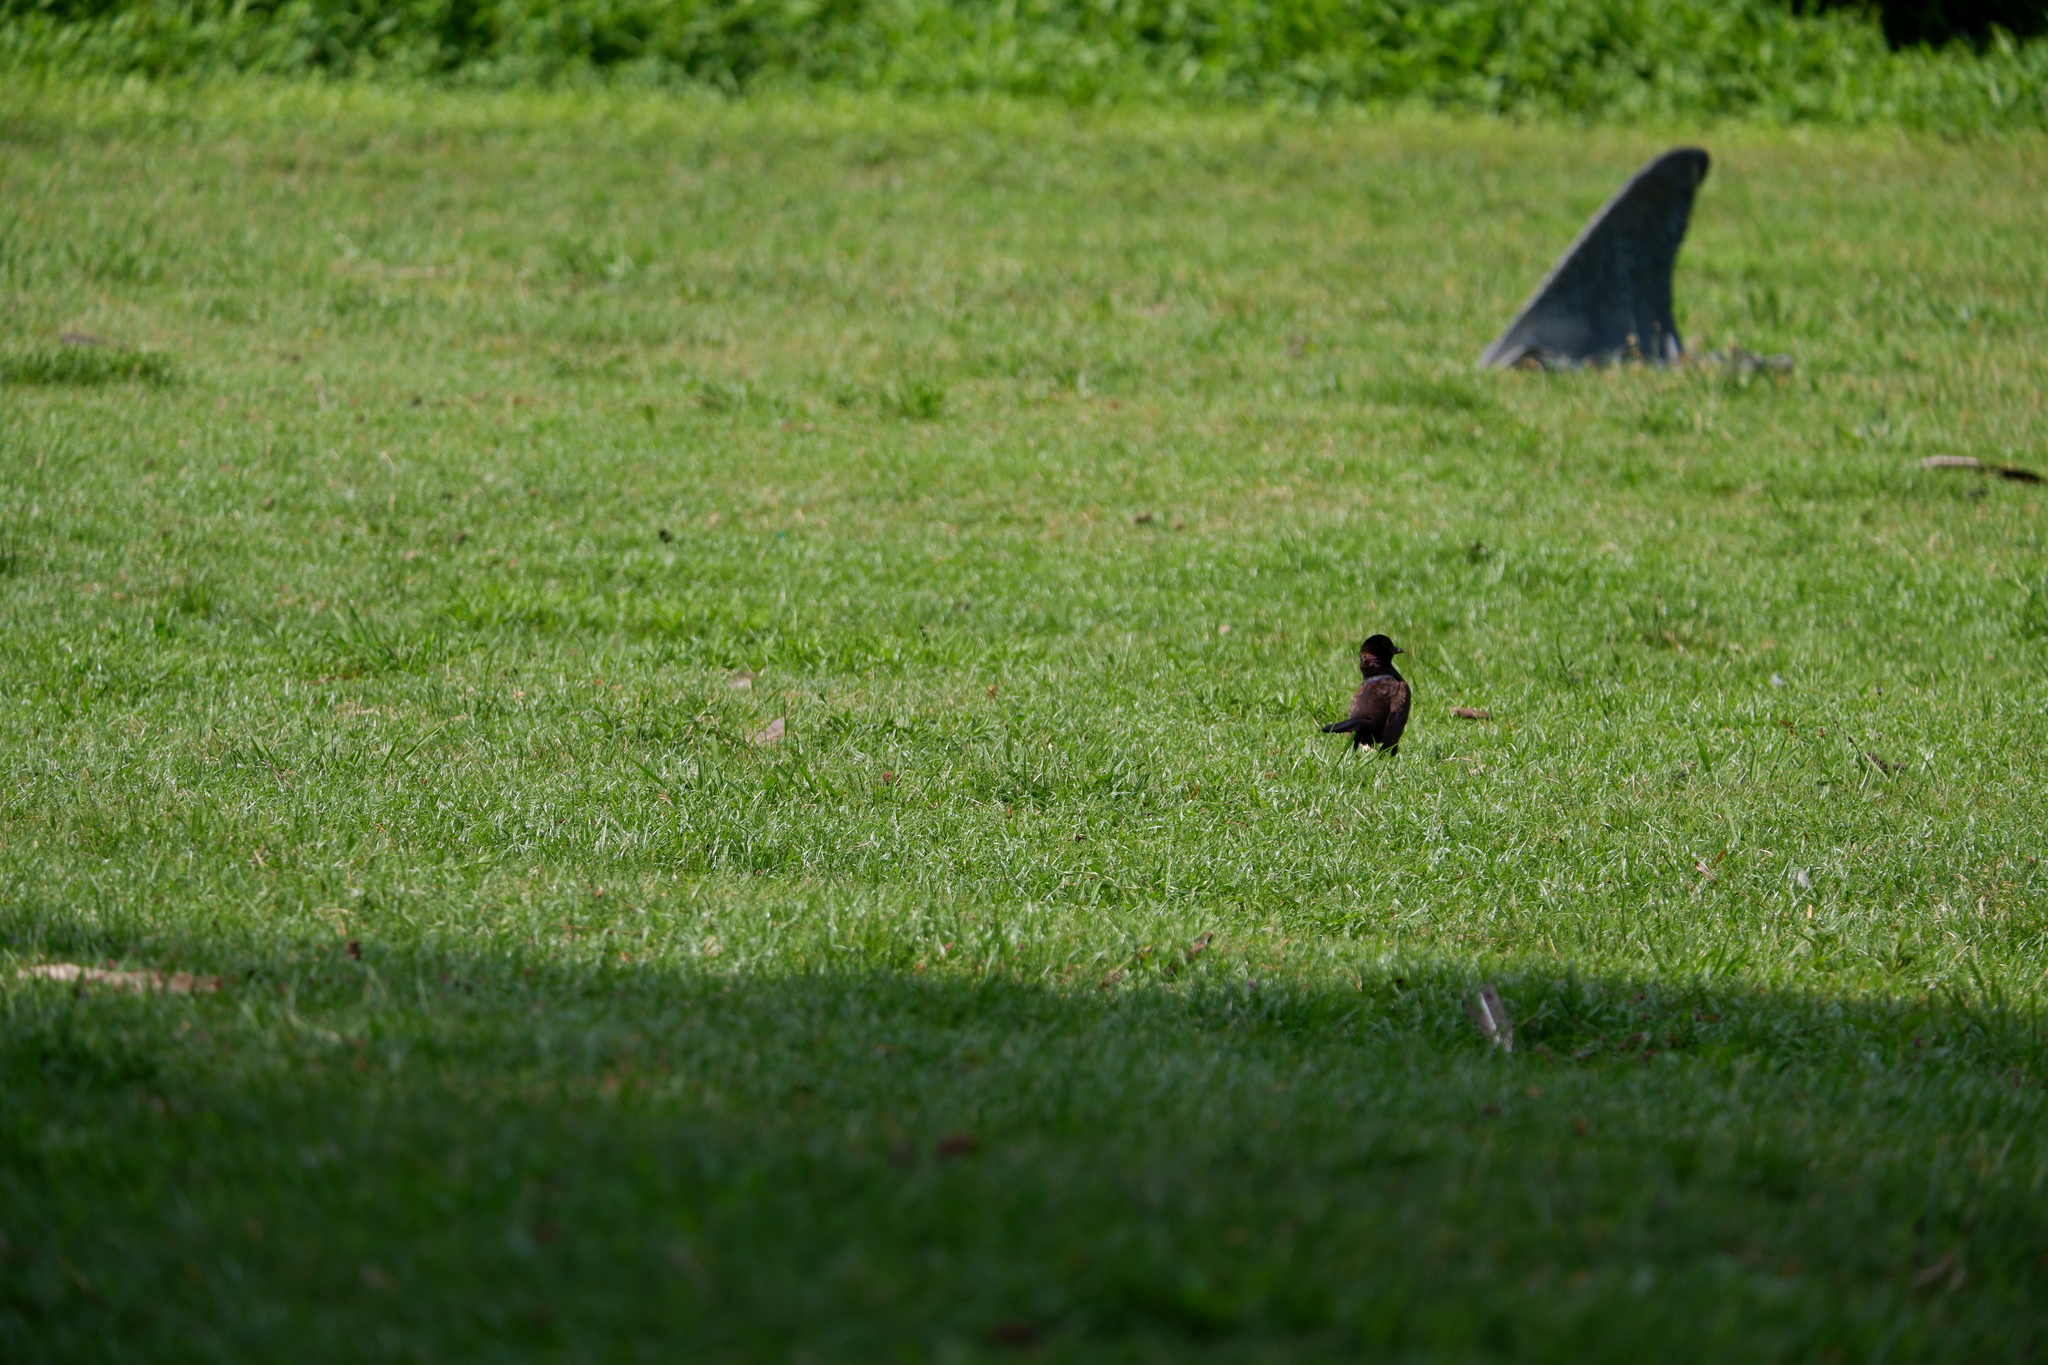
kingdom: Animalia
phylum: Chordata
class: Aves
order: Passeriformes
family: Icteridae
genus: Quiscalus
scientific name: Quiscalus quiscula
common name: Common grackle
